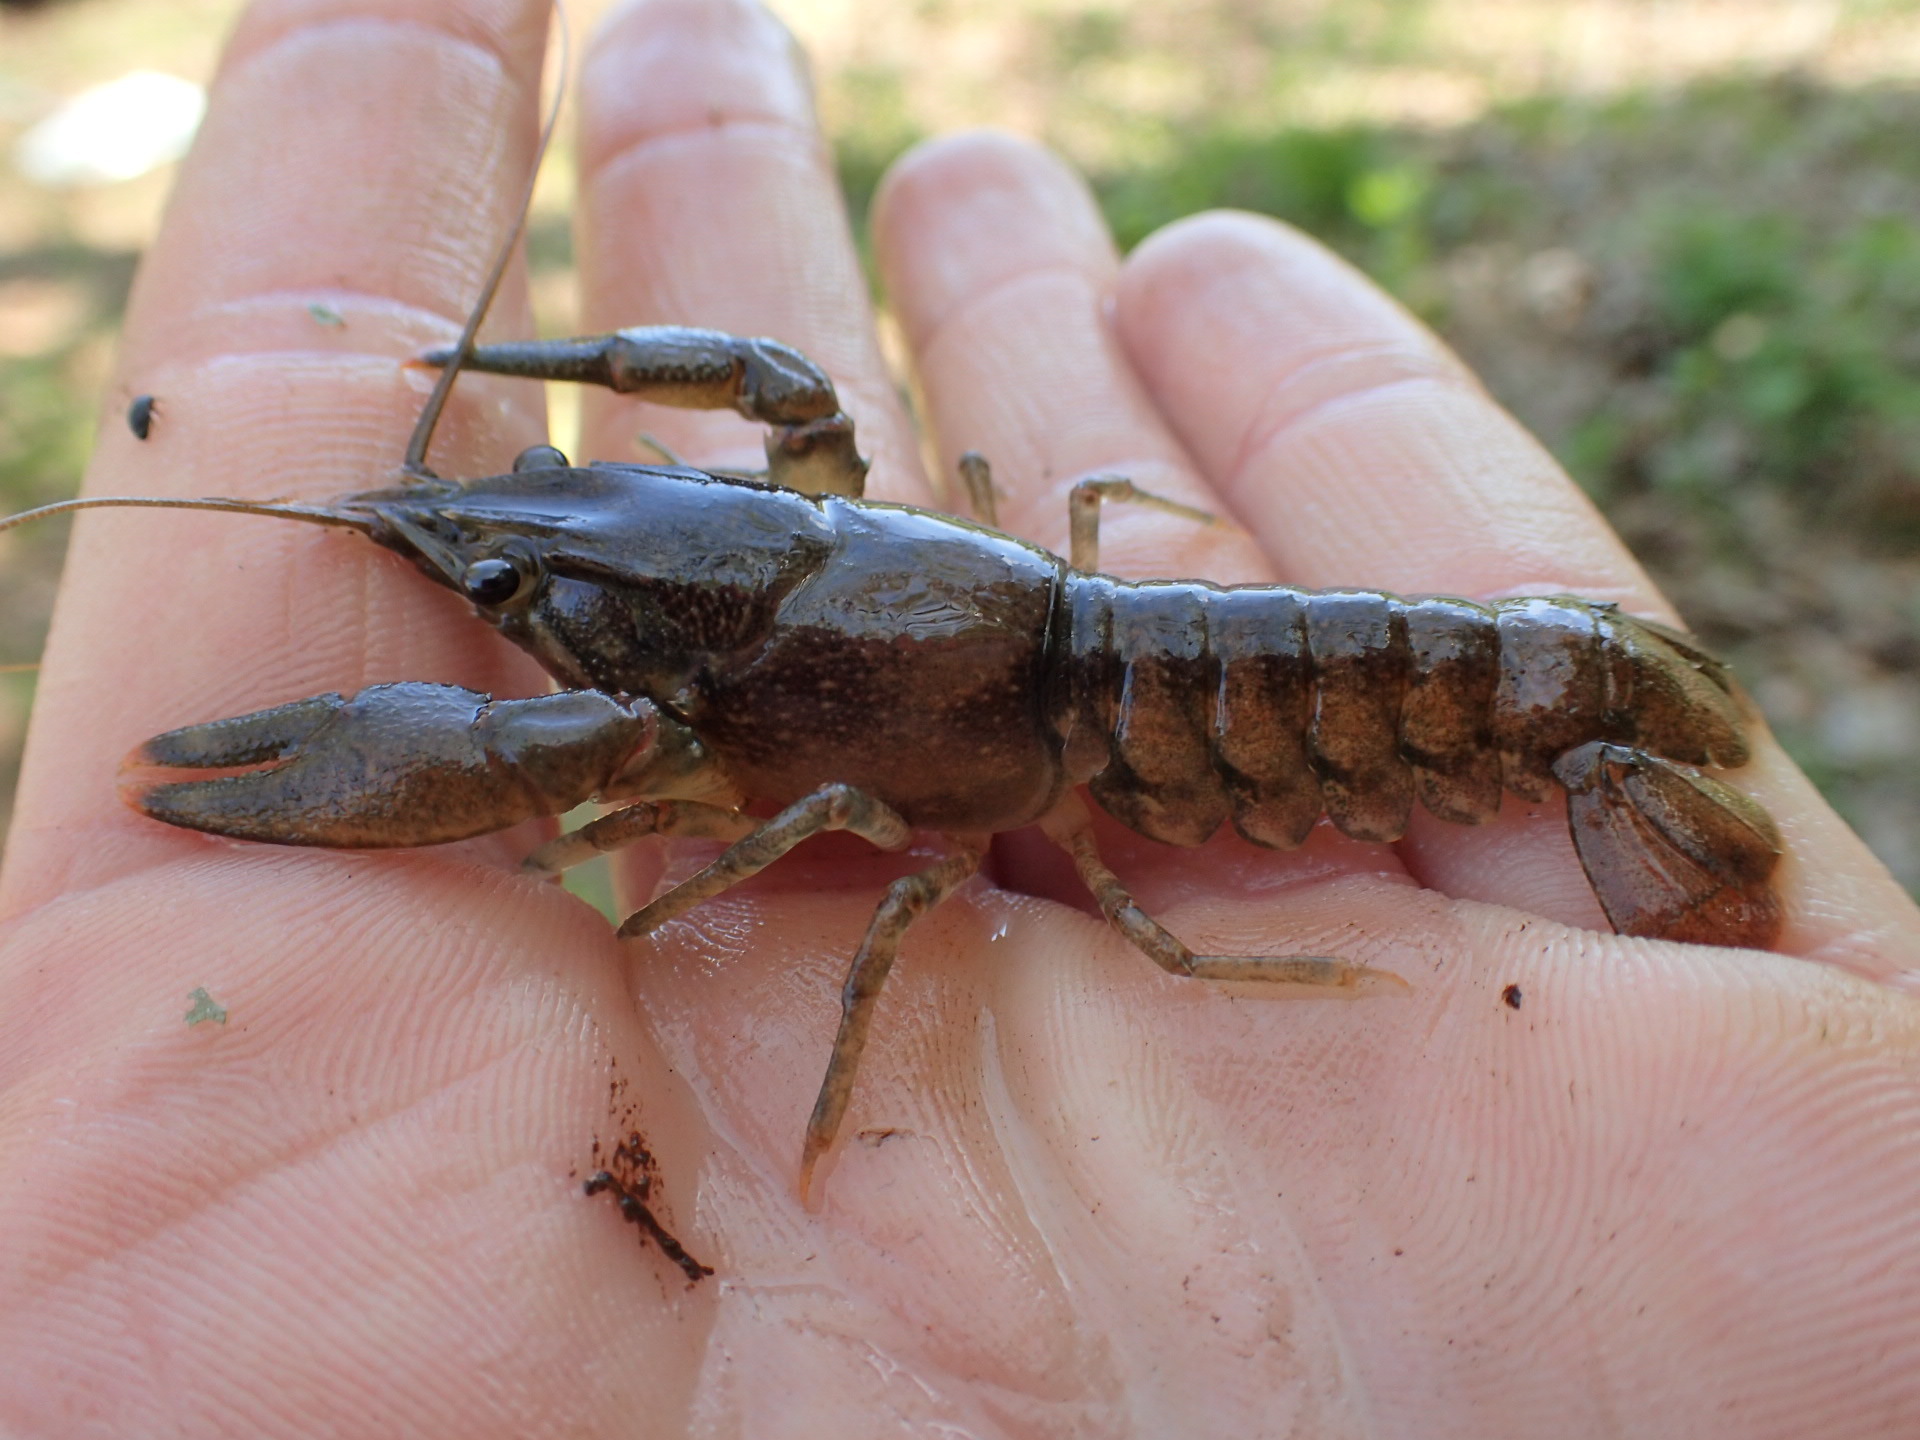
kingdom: Animalia
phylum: Arthropoda
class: Malacostraca
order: Decapoda
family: Cambaridae
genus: Faxonius
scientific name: Faxonius obscurus
